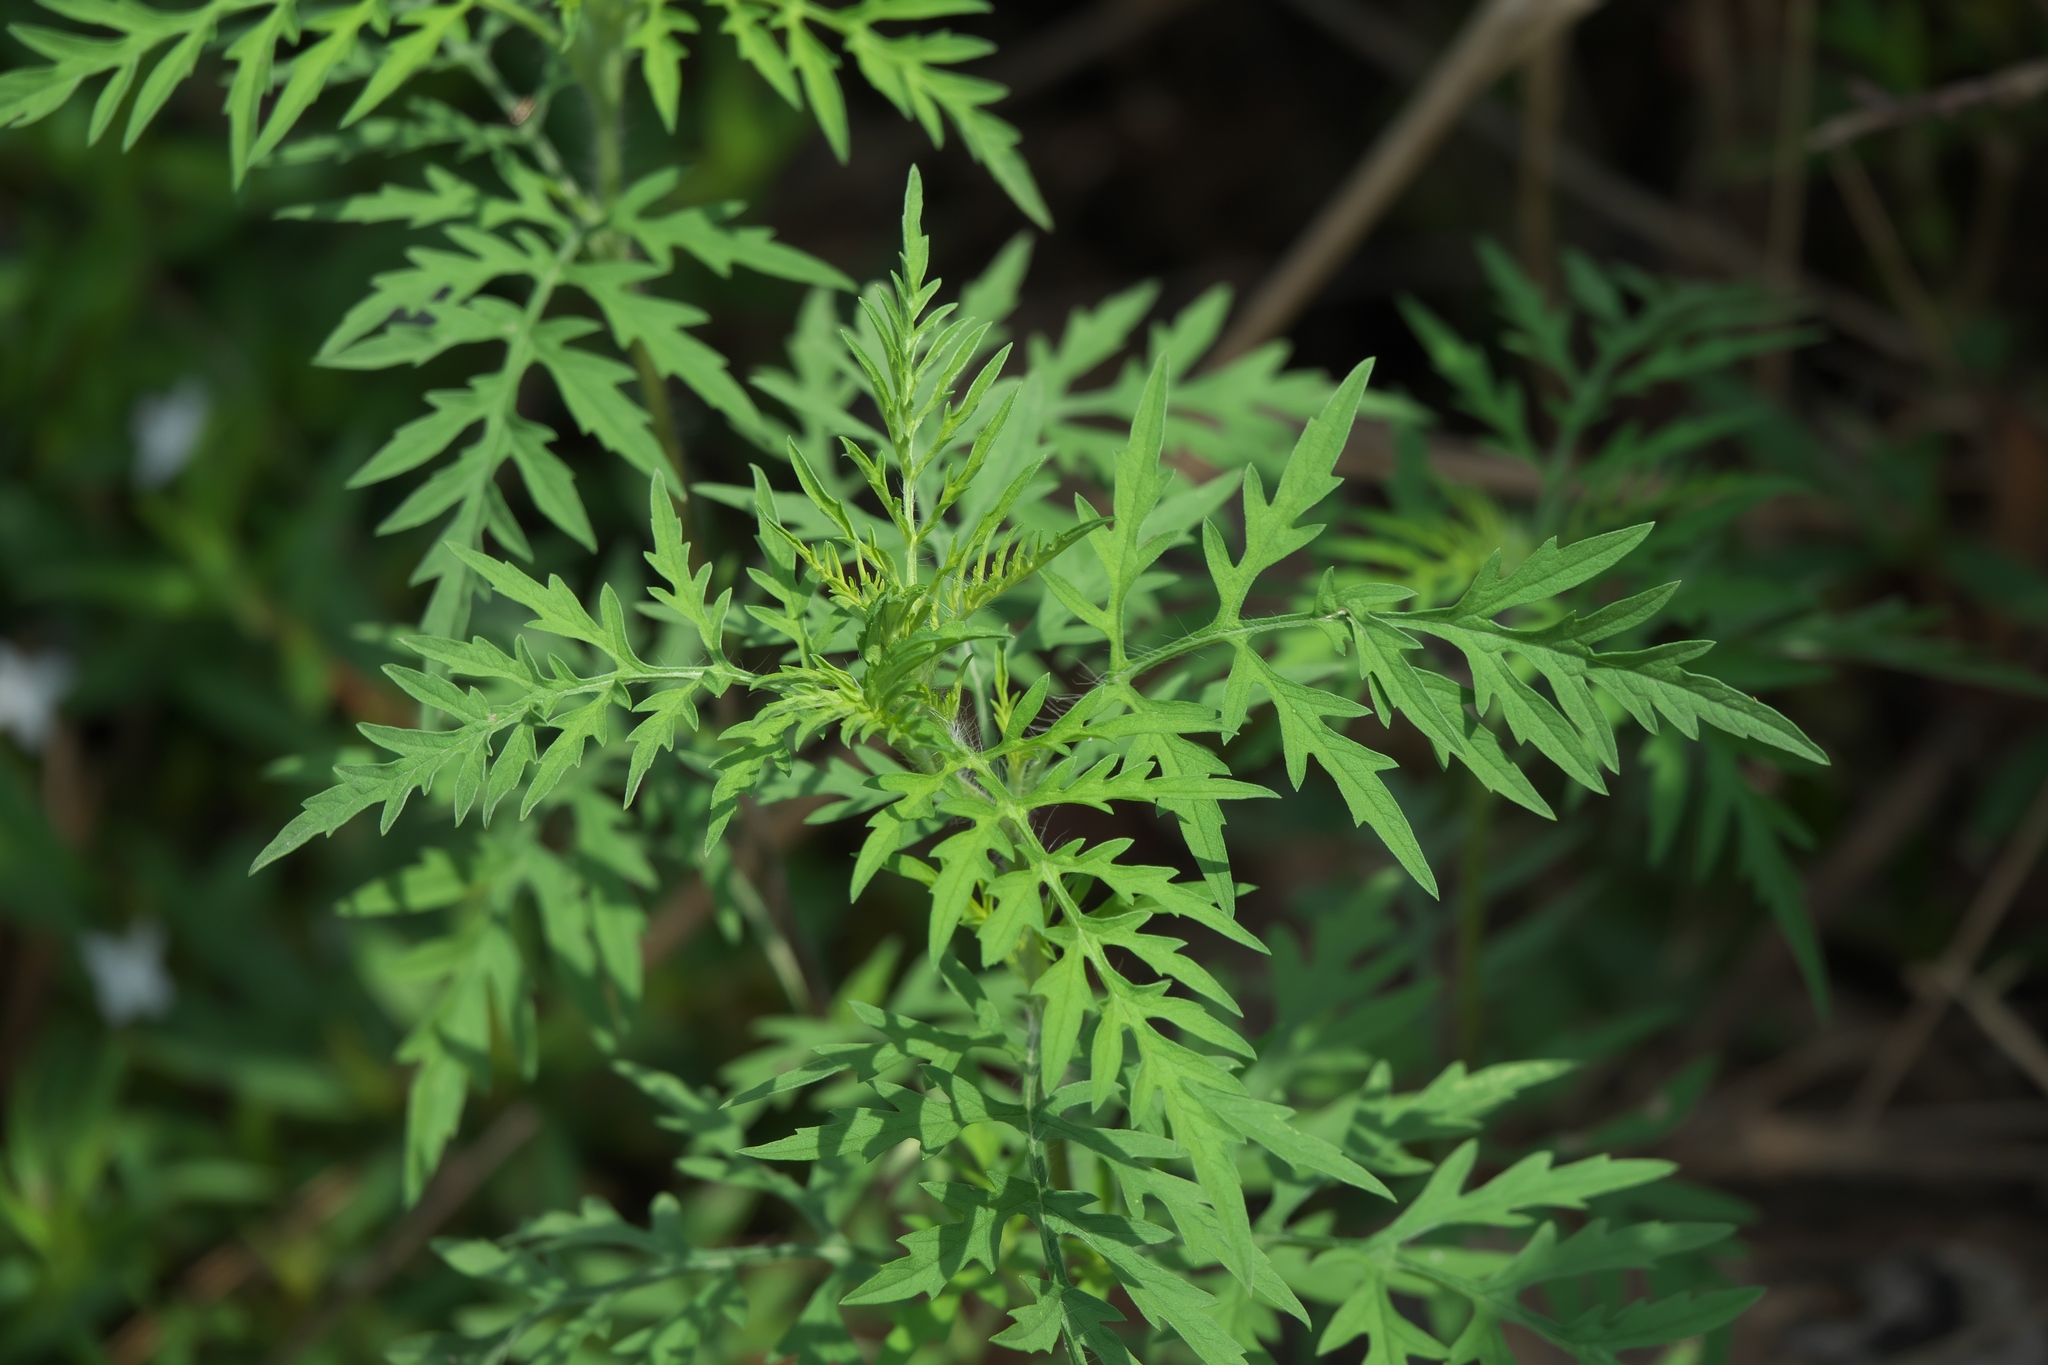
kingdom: Plantae
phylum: Tracheophyta
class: Magnoliopsida
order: Asterales
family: Asteraceae
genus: Ambrosia
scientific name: Ambrosia artemisiifolia
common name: Annual ragweed
